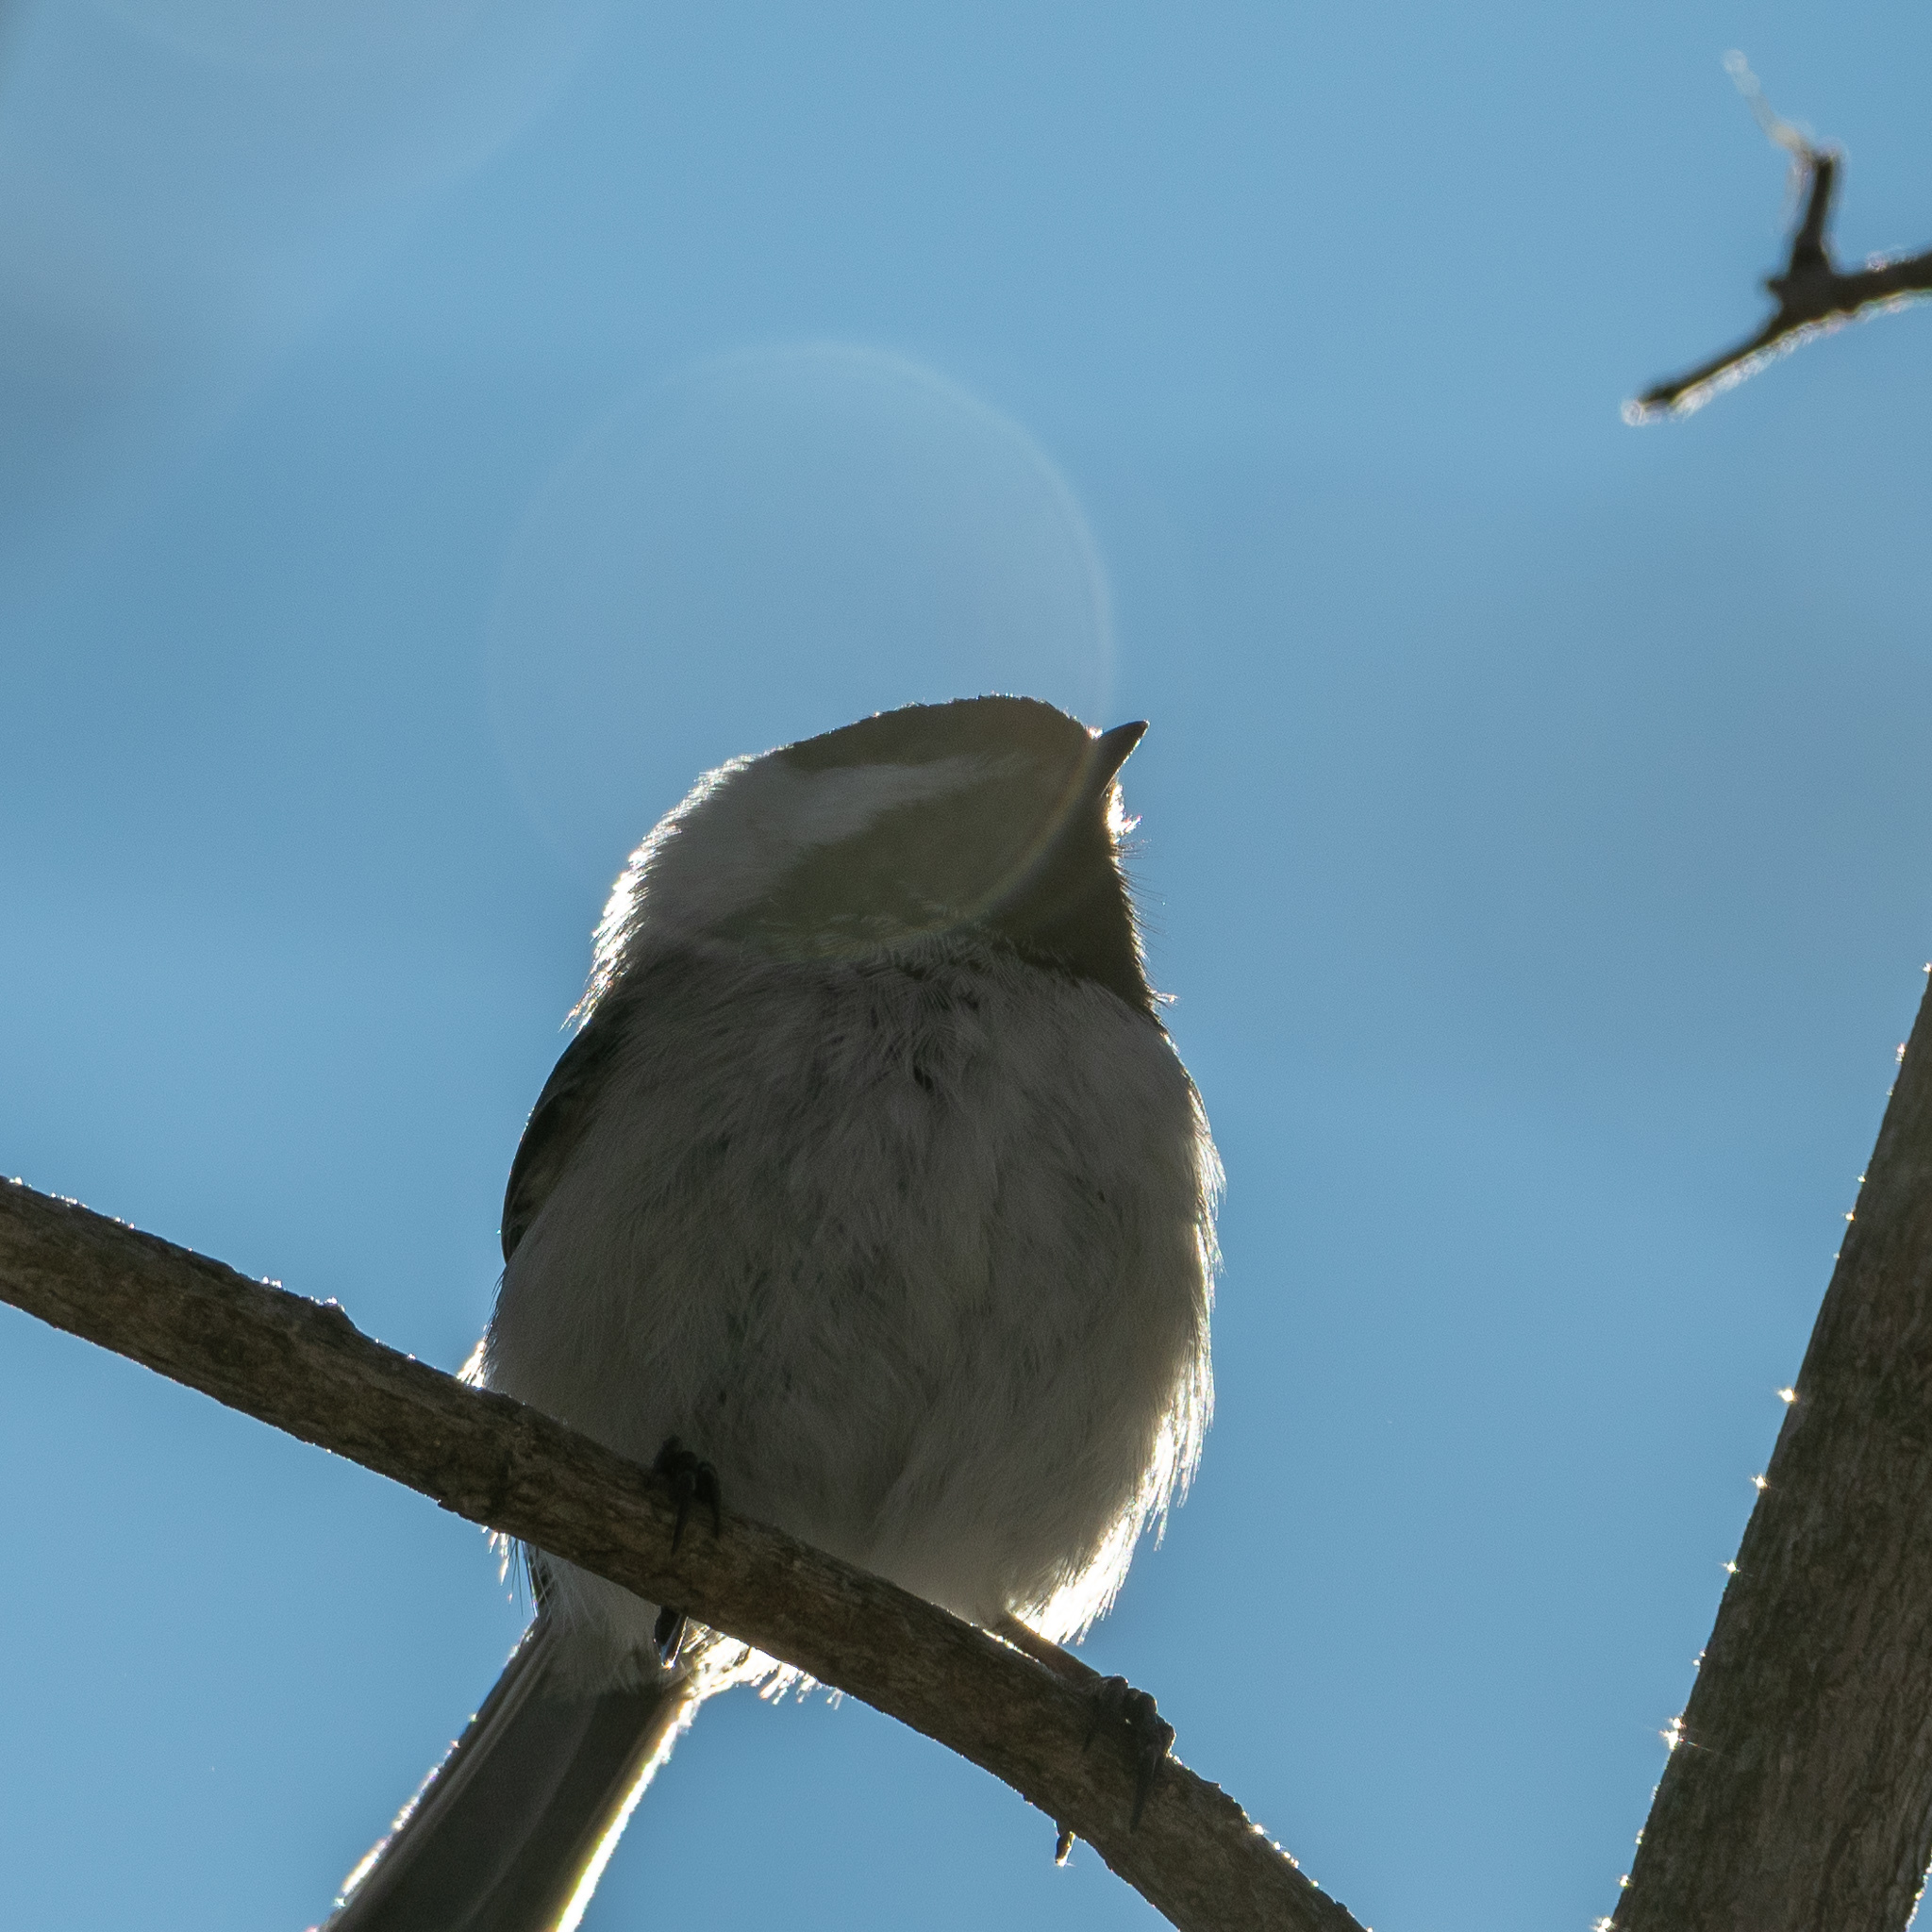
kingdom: Animalia
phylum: Chordata
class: Aves
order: Passeriformes
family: Paridae
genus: Poecile
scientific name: Poecile atricapillus
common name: Black-capped chickadee
